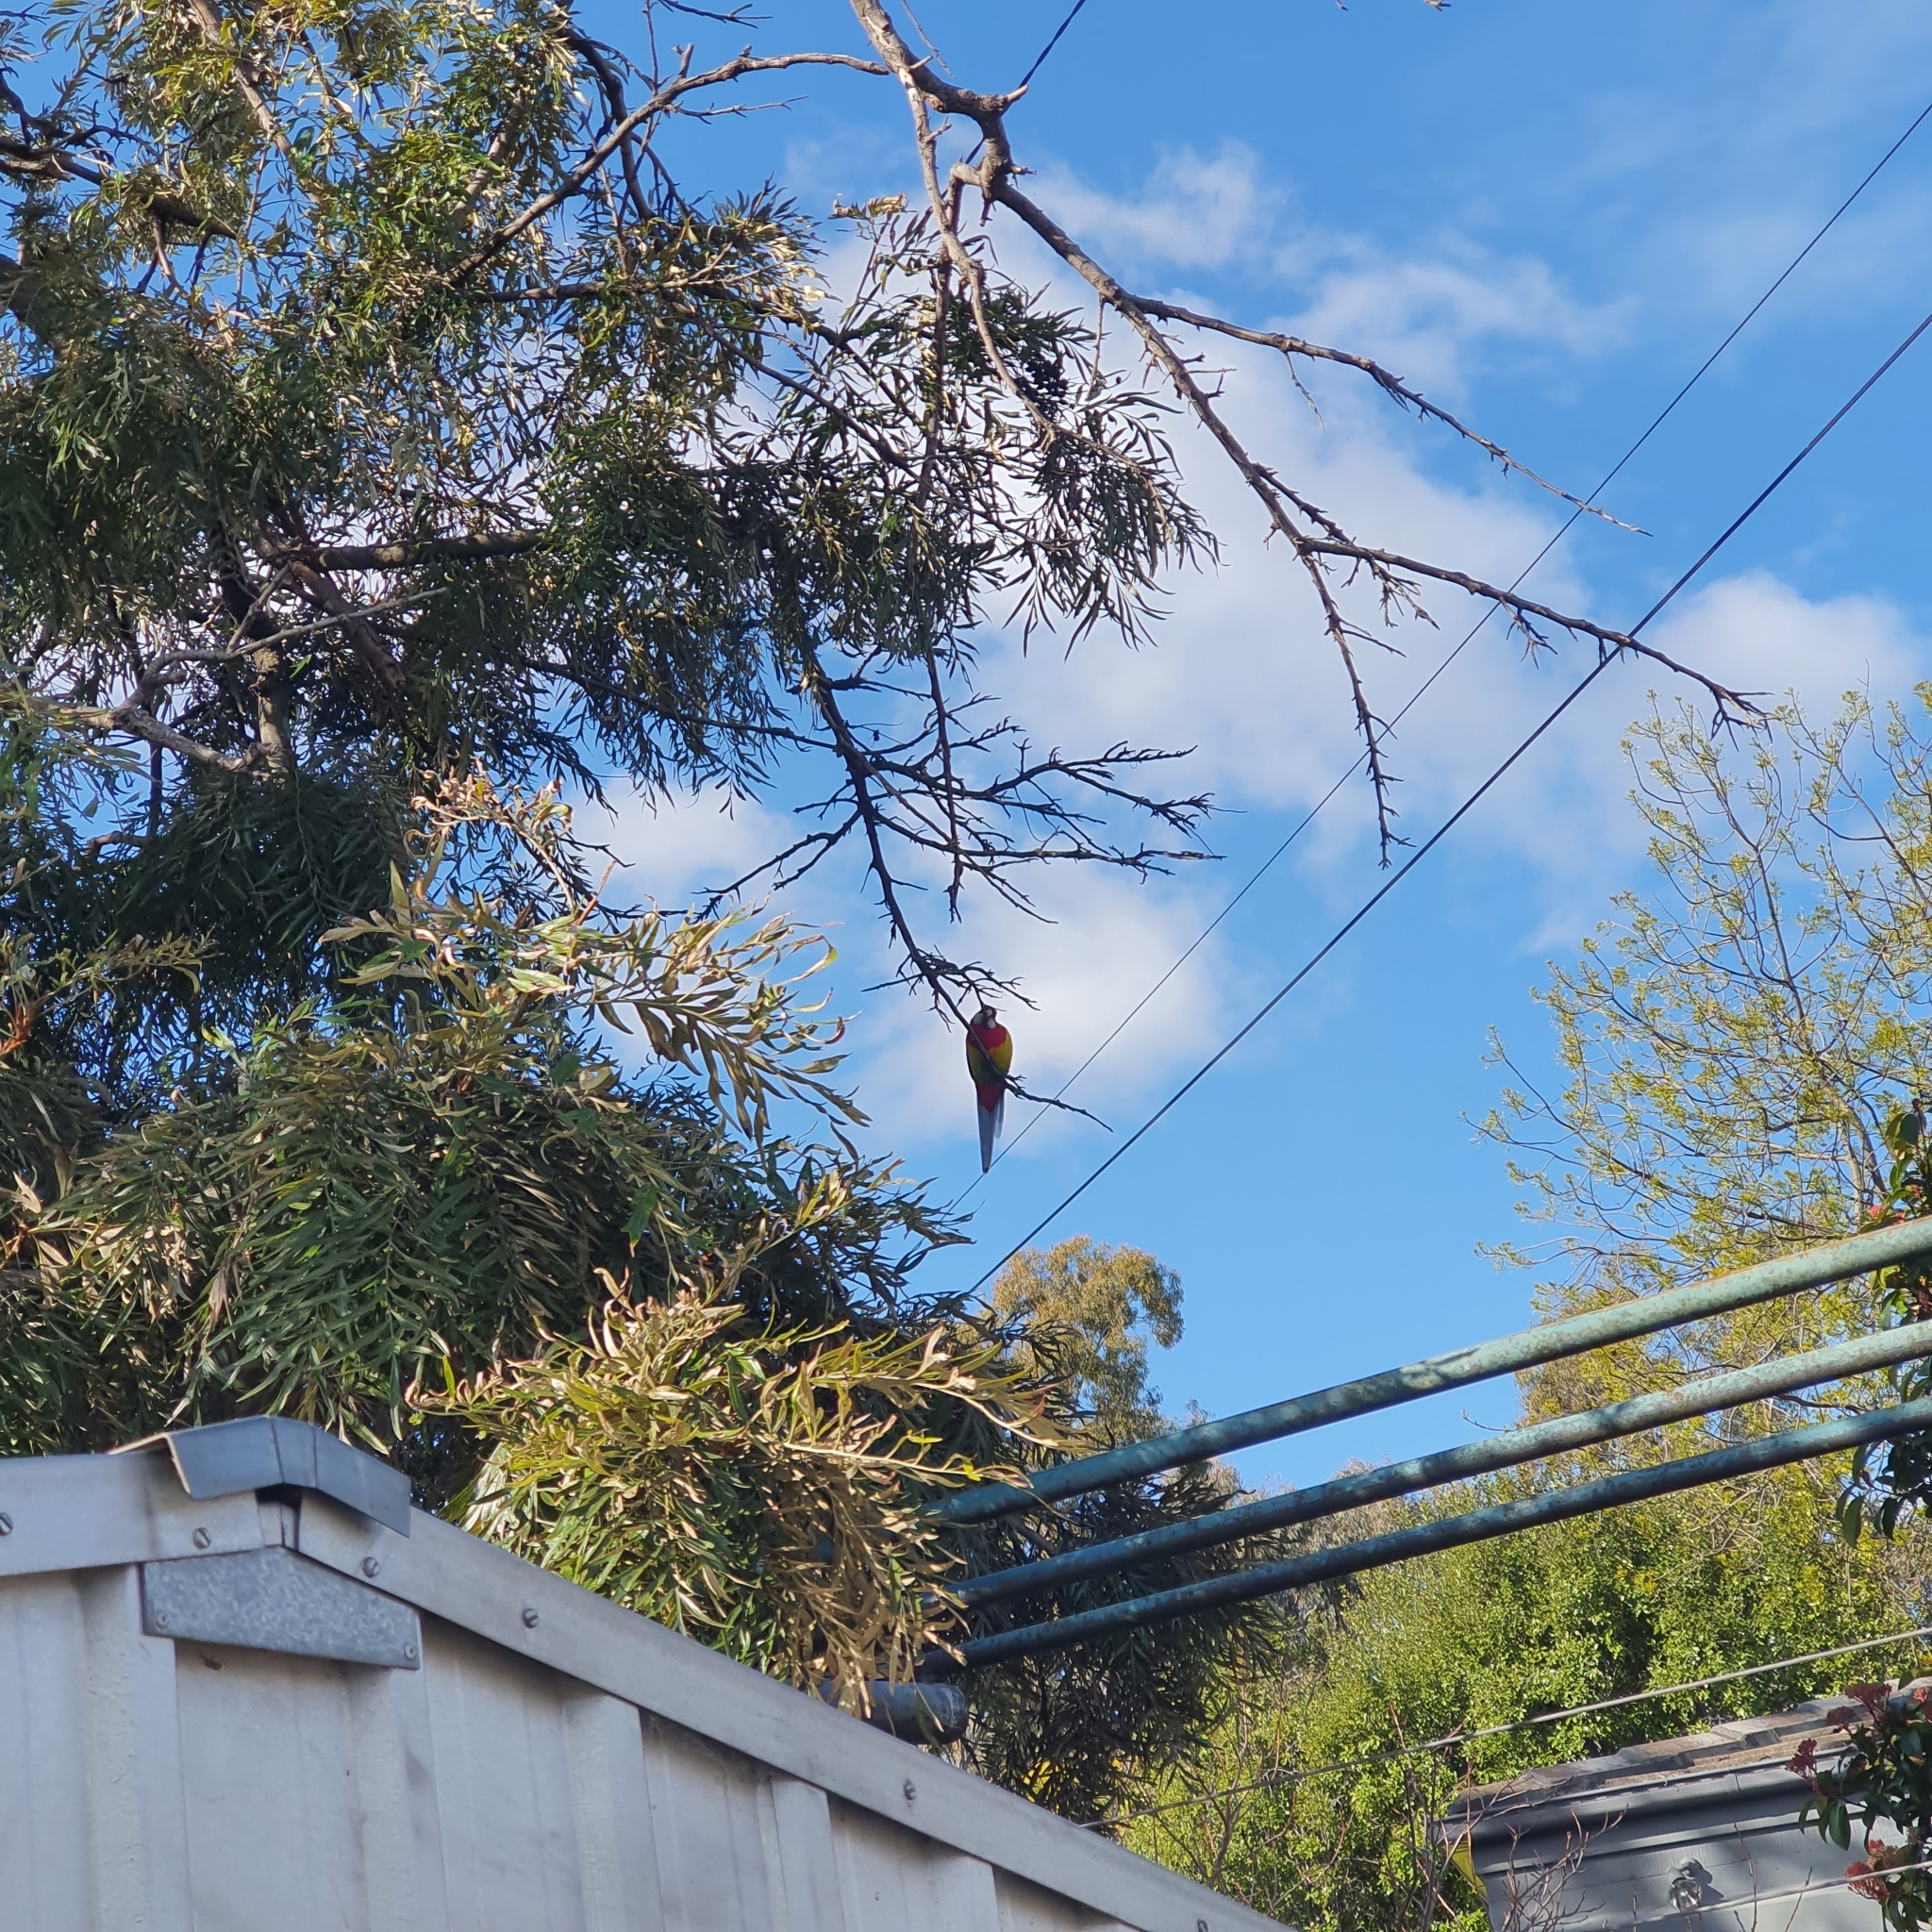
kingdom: Animalia
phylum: Chordata
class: Aves
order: Psittaciformes
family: Psittacidae
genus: Platycercus
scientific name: Platycercus eximius
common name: Eastern rosella
